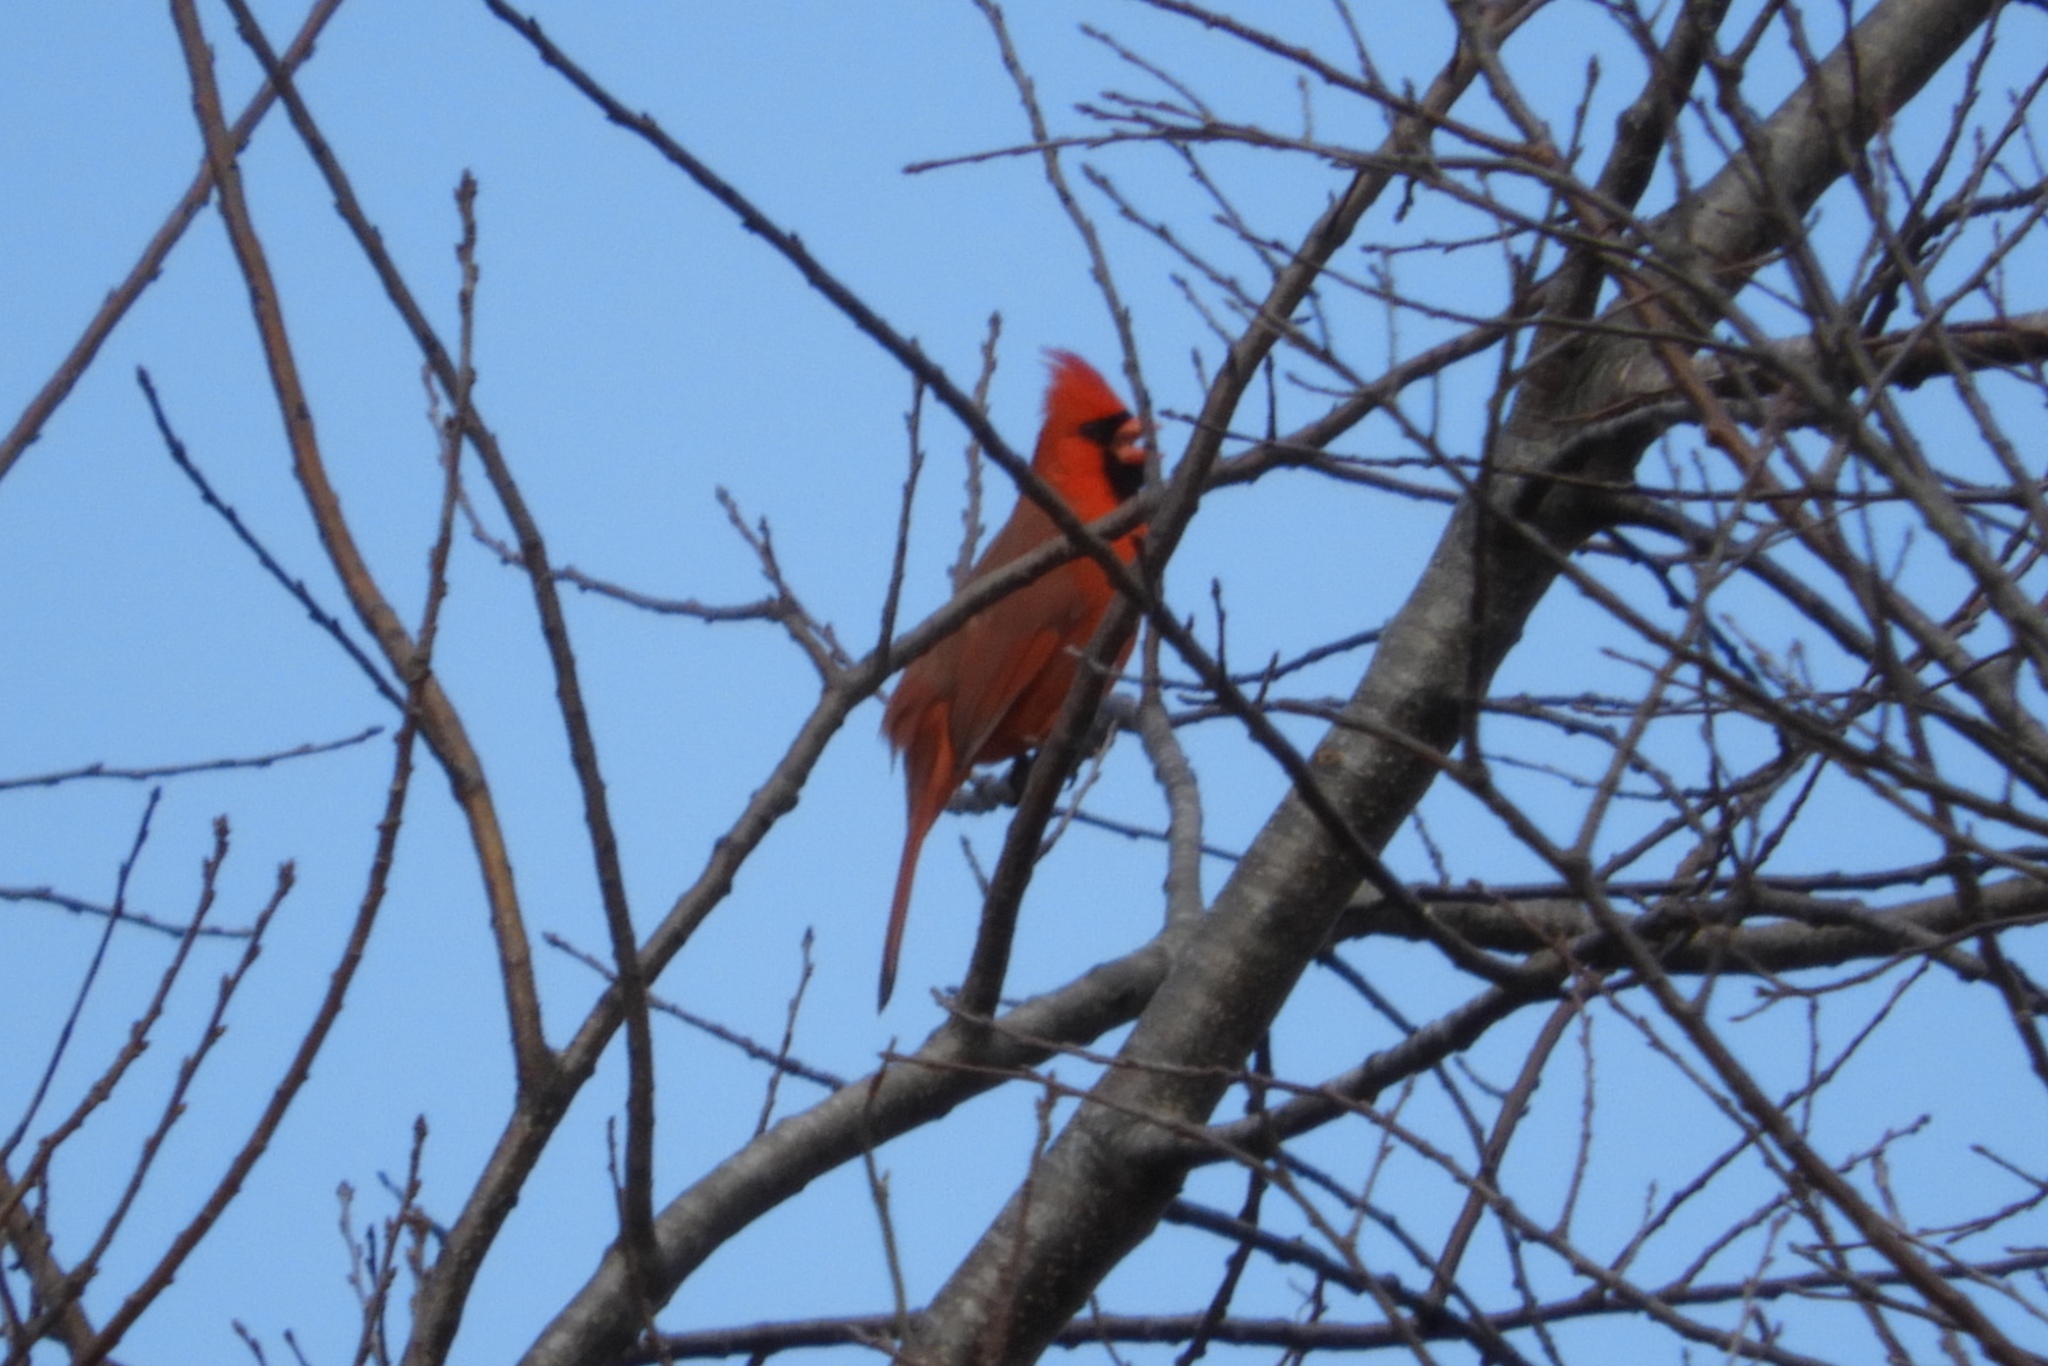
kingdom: Animalia
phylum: Chordata
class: Aves
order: Passeriformes
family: Cardinalidae
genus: Cardinalis
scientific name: Cardinalis cardinalis
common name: Northern cardinal
